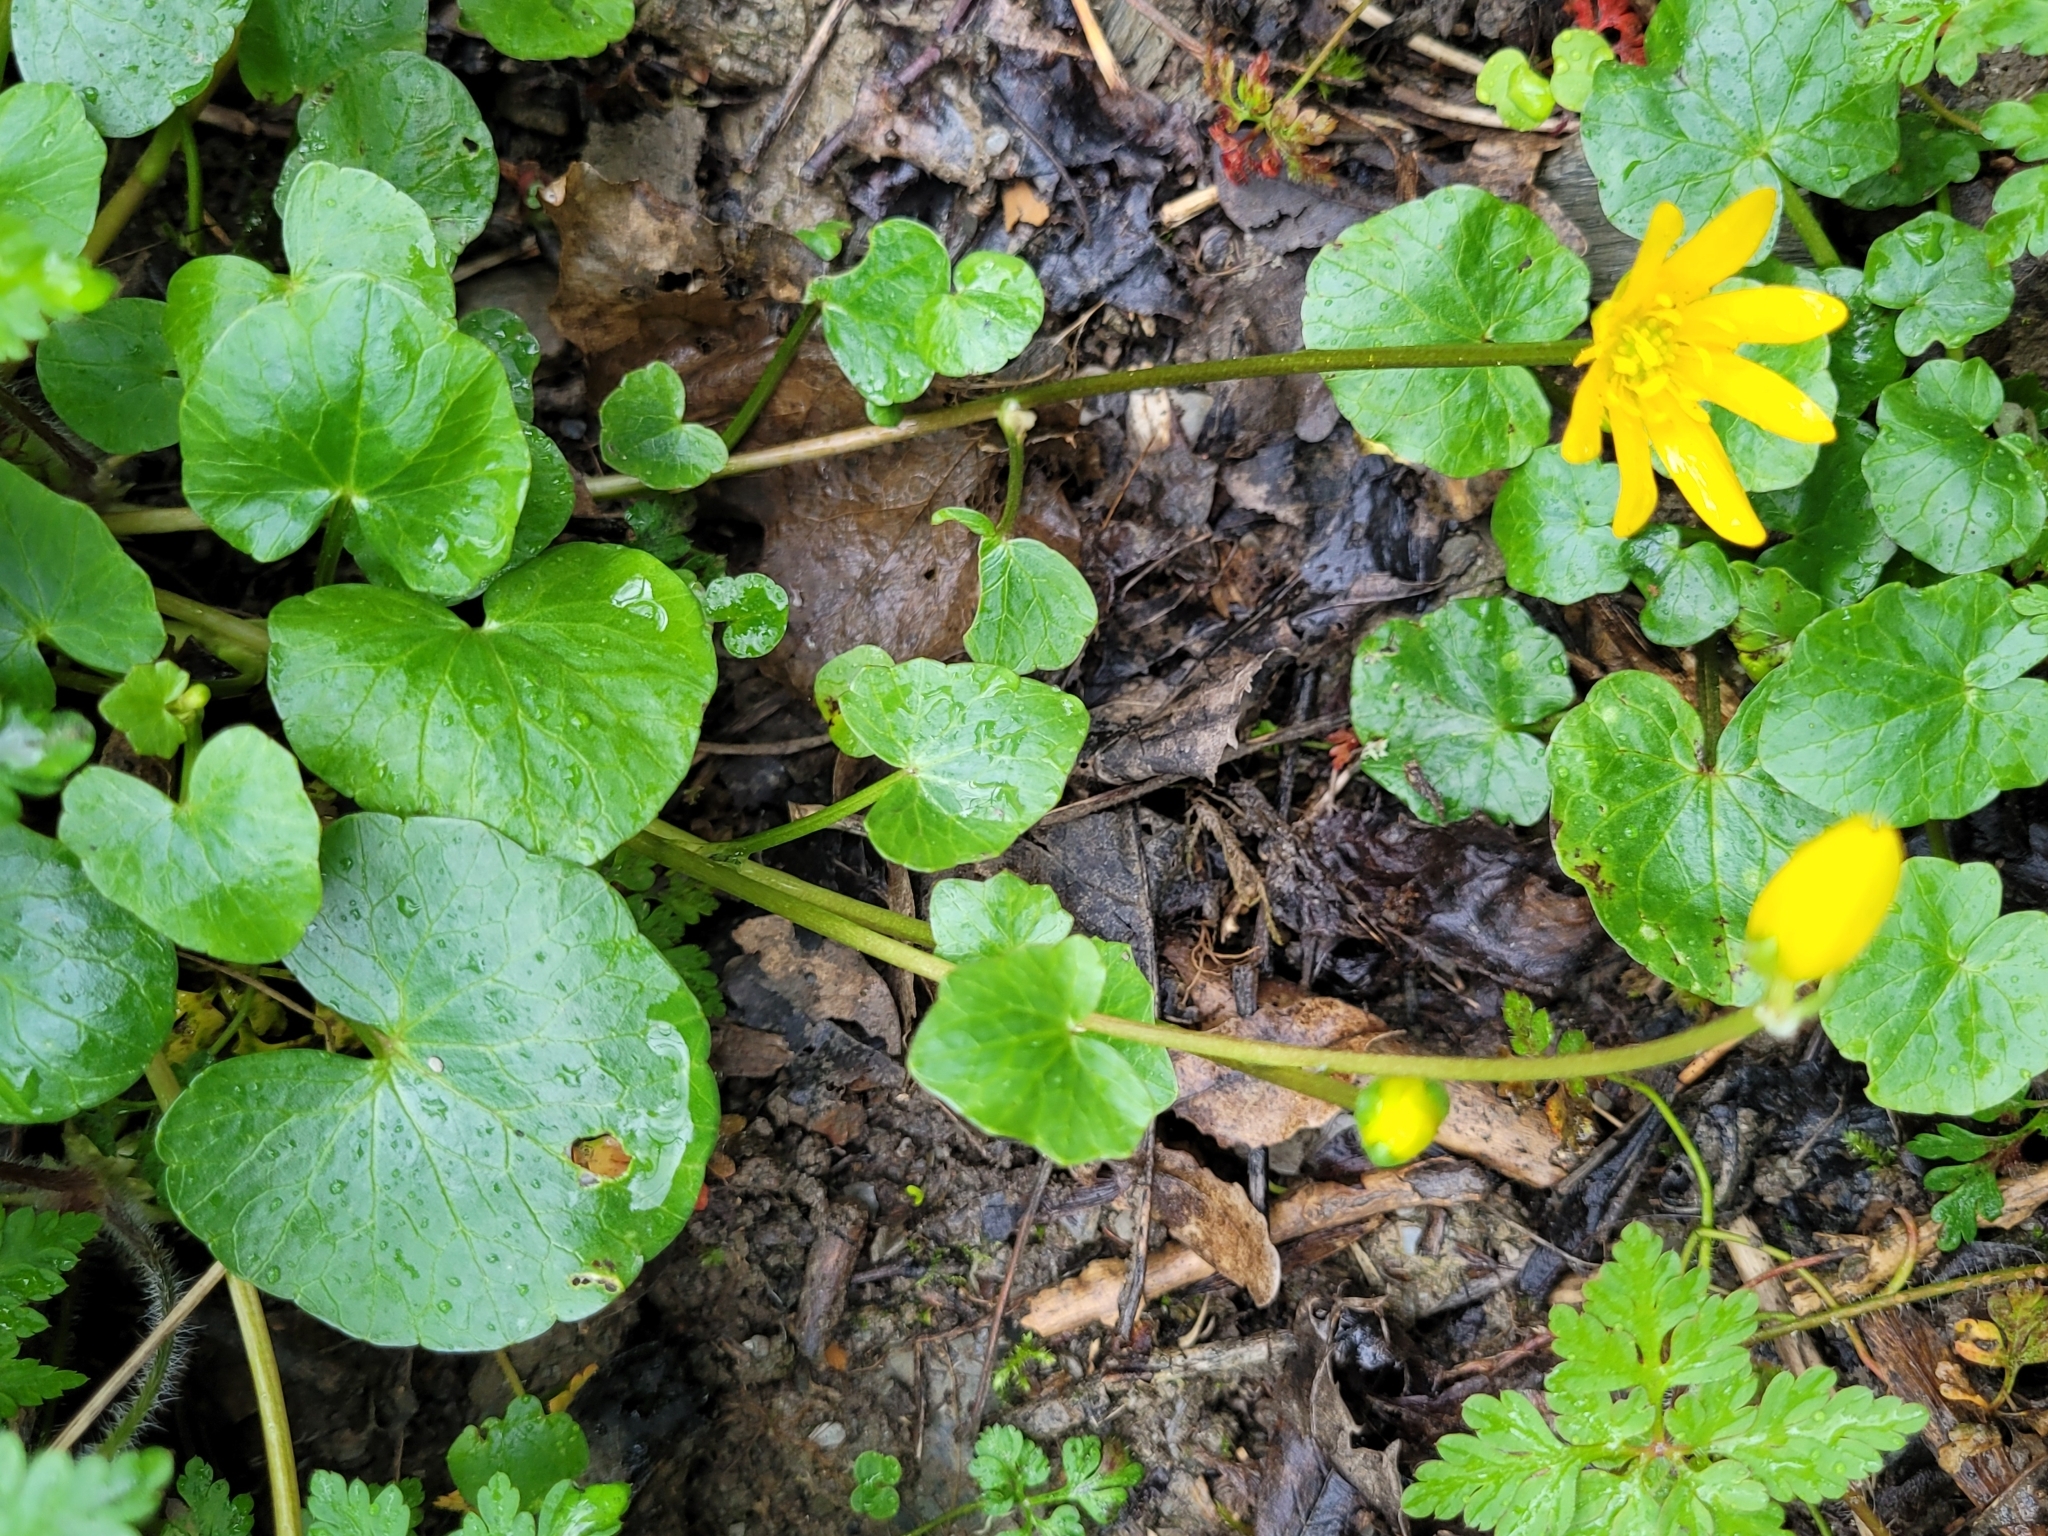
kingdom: Plantae
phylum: Tracheophyta
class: Magnoliopsida
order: Ranunculales
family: Ranunculaceae
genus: Ficaria
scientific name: Ficaria verna
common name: Lesser celandine
